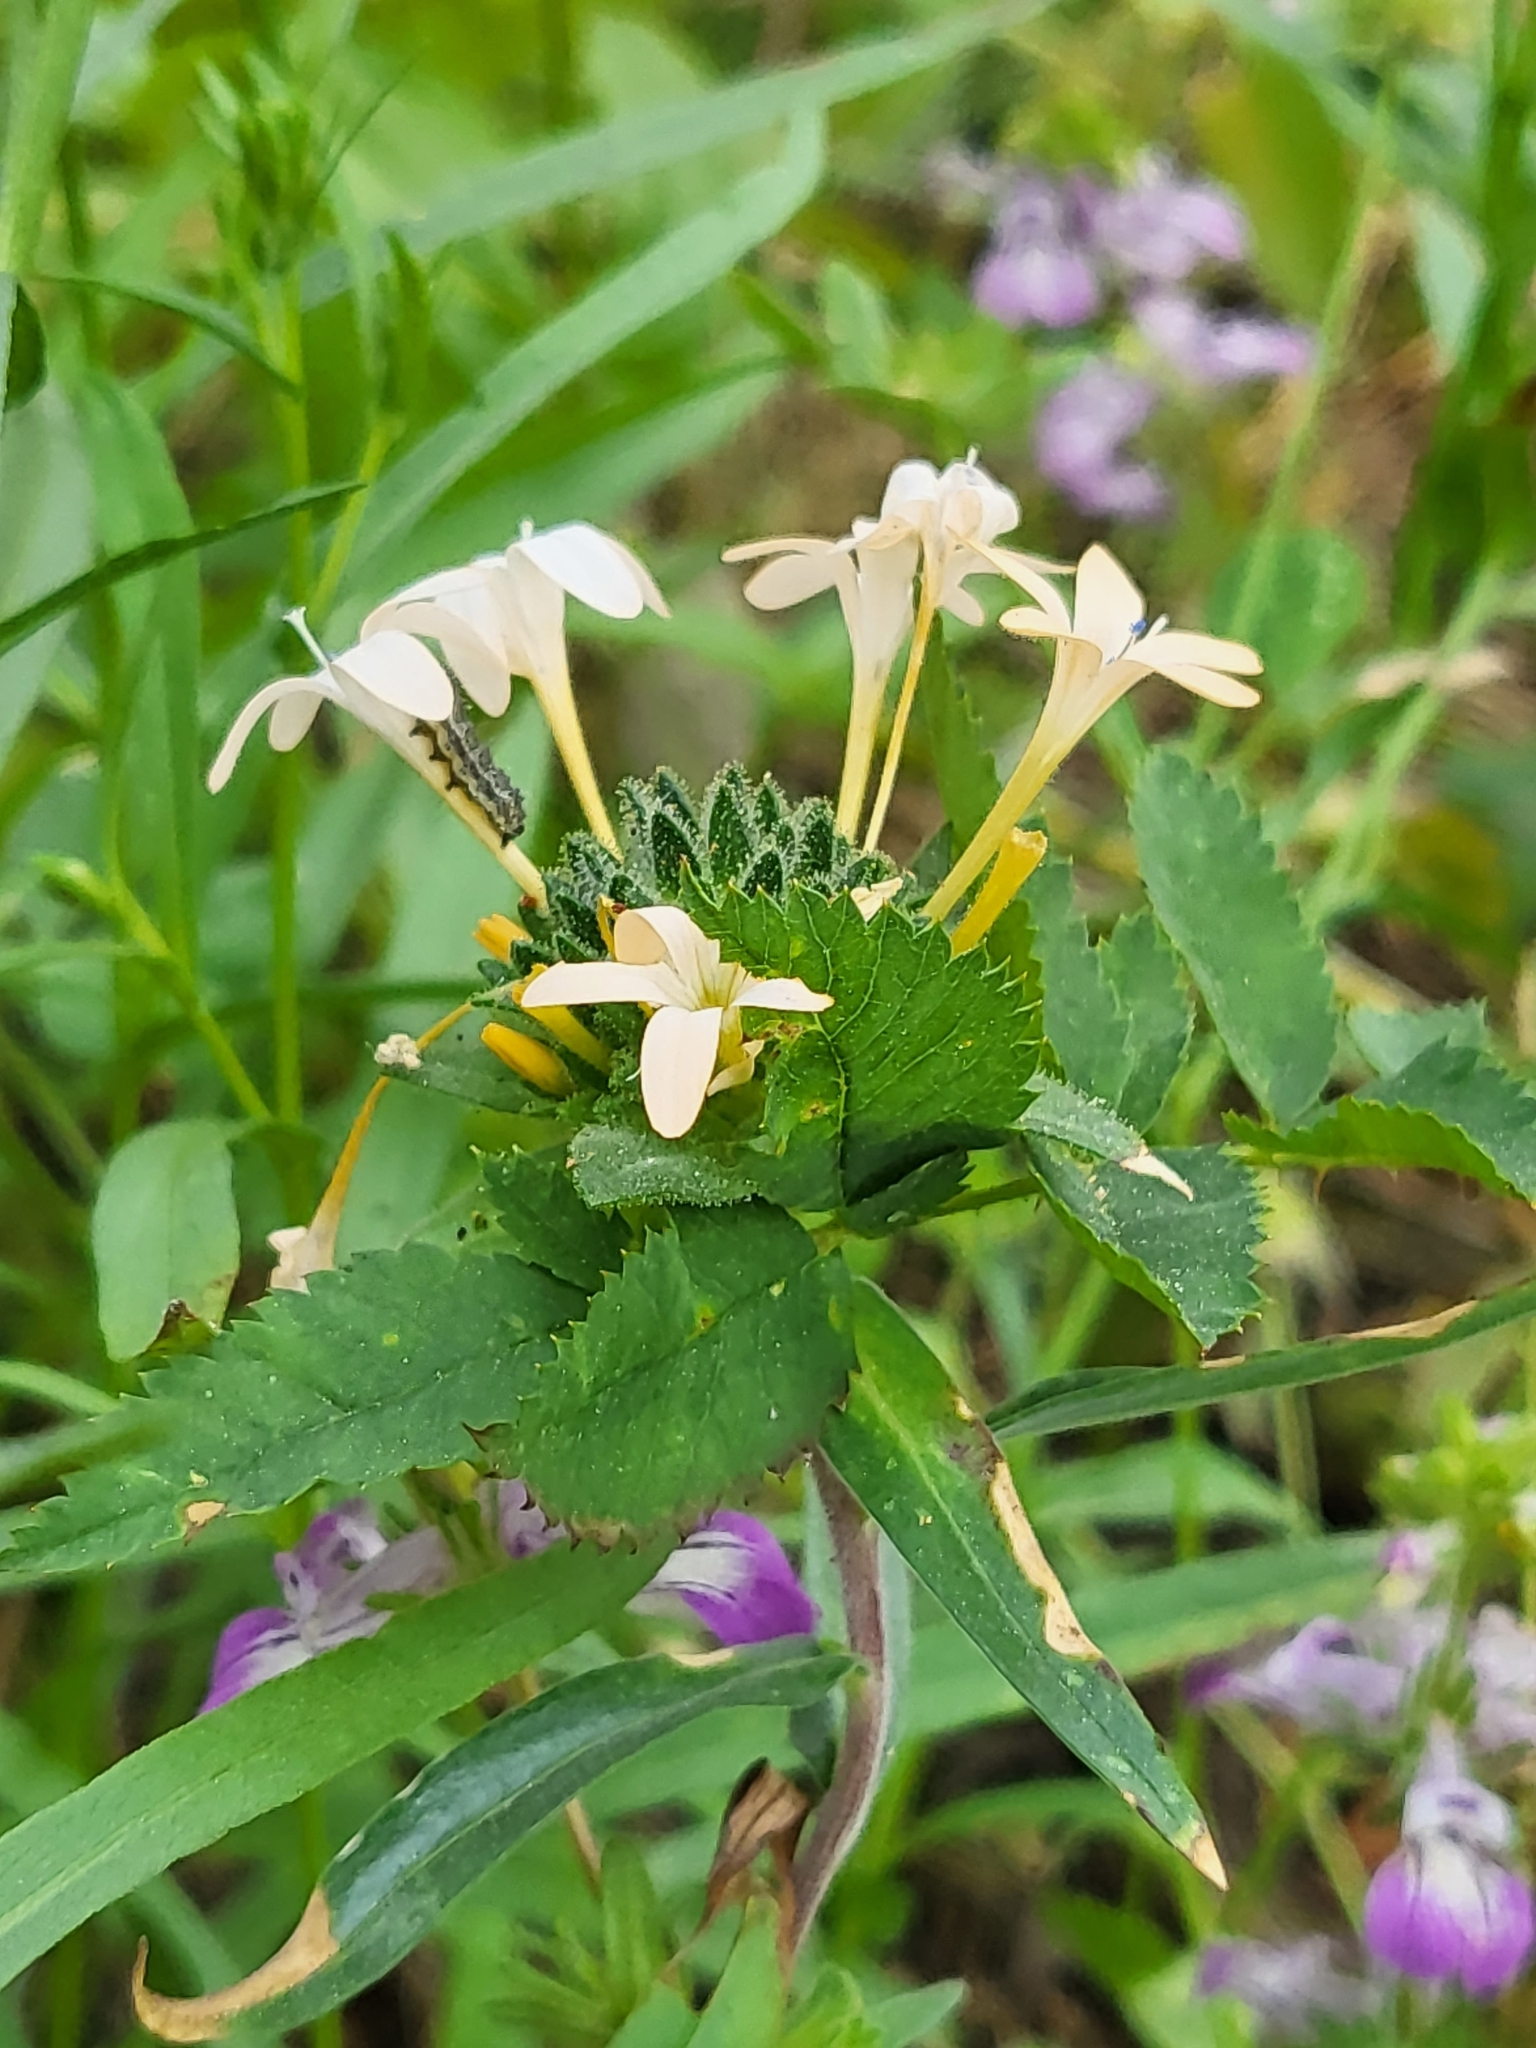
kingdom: Plantae
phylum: Tracheophyta
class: Magnoliopsida
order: Ericales
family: Polemoniaceae
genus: Collomia
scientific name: Collomia grandiflora
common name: California strawflower
